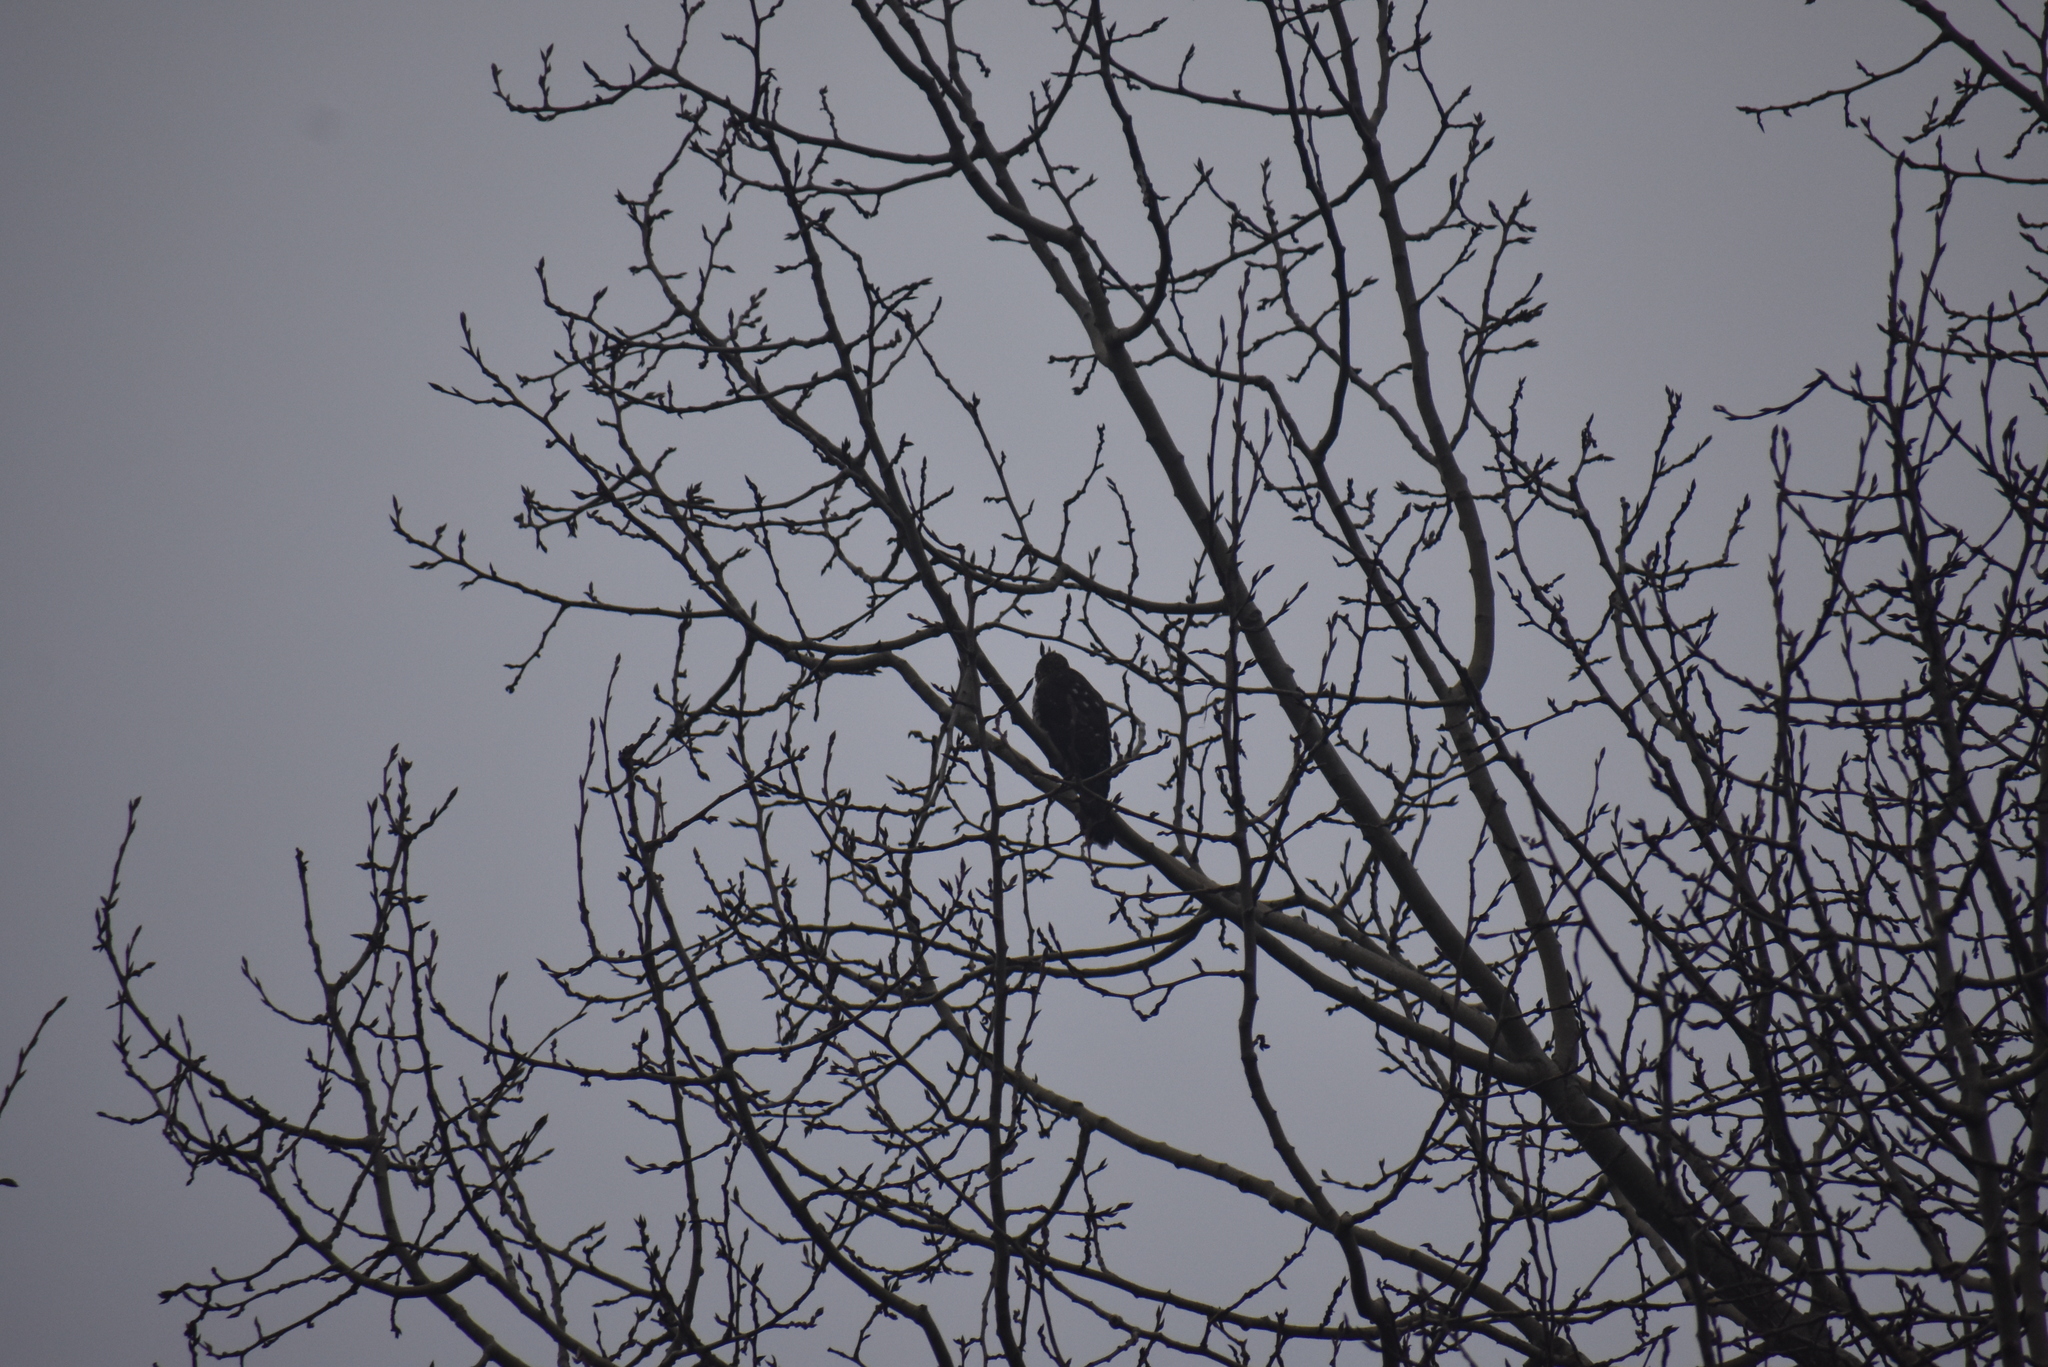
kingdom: Animalia
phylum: Chordata
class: Aves
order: Accipitriformes
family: Accipitridae
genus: Accipiter
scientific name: Accipiter cooperii
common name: Cooper's hawk
